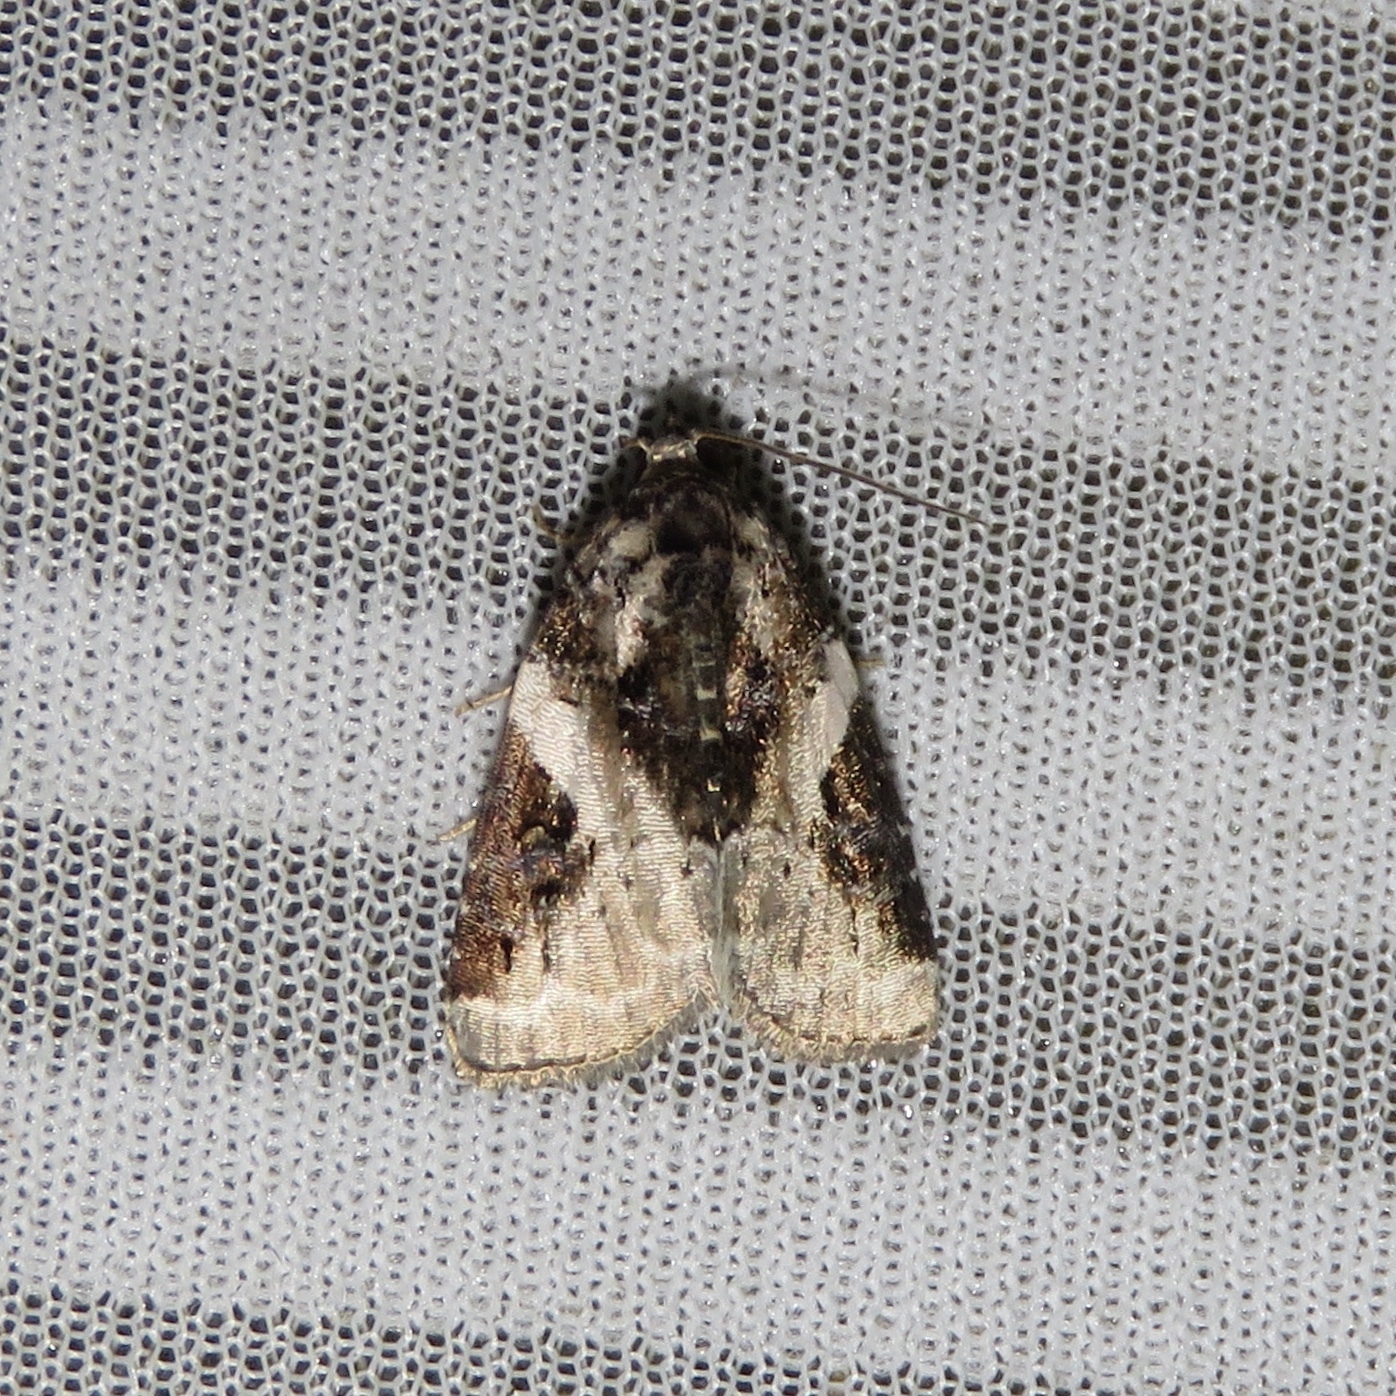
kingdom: Animalia
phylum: Arthropoda
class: Insecta
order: Lepidoptera
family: Noctuidae
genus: Pseudeustrotia
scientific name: Pseudeustrotia carneola
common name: Pink-barred lithacodia moth
